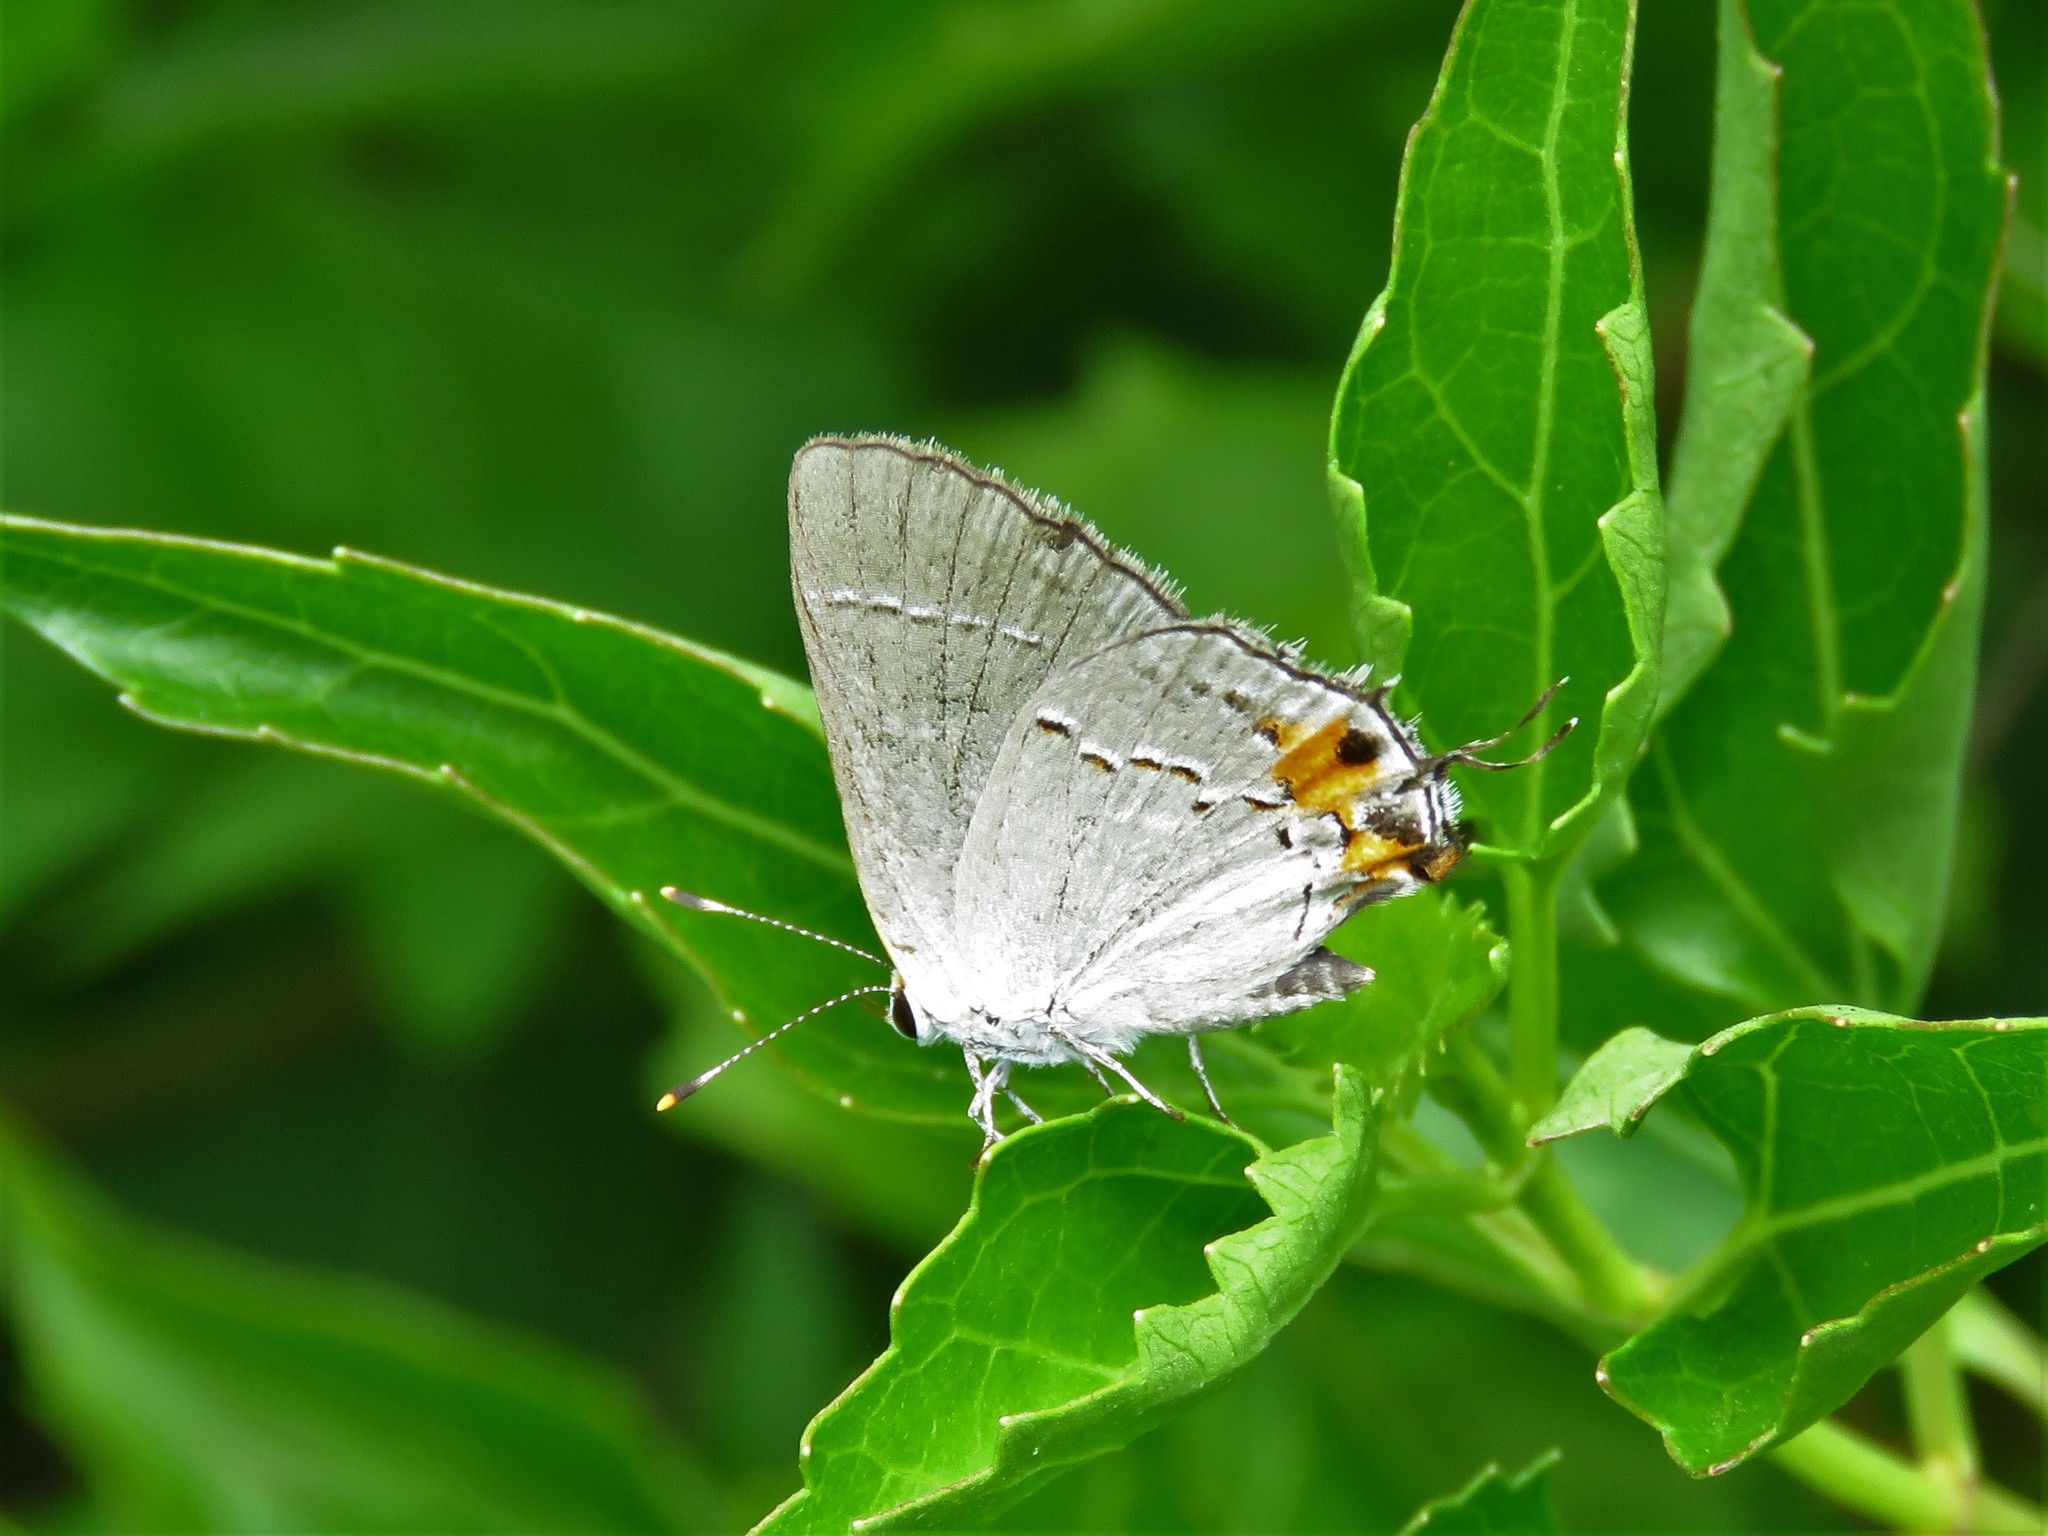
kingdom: Animalia
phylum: Arthropoda
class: Insecta
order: Lepidoptera
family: Lycaenidae
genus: Strymon
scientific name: Strymon melinus
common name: Gray hairstreak
